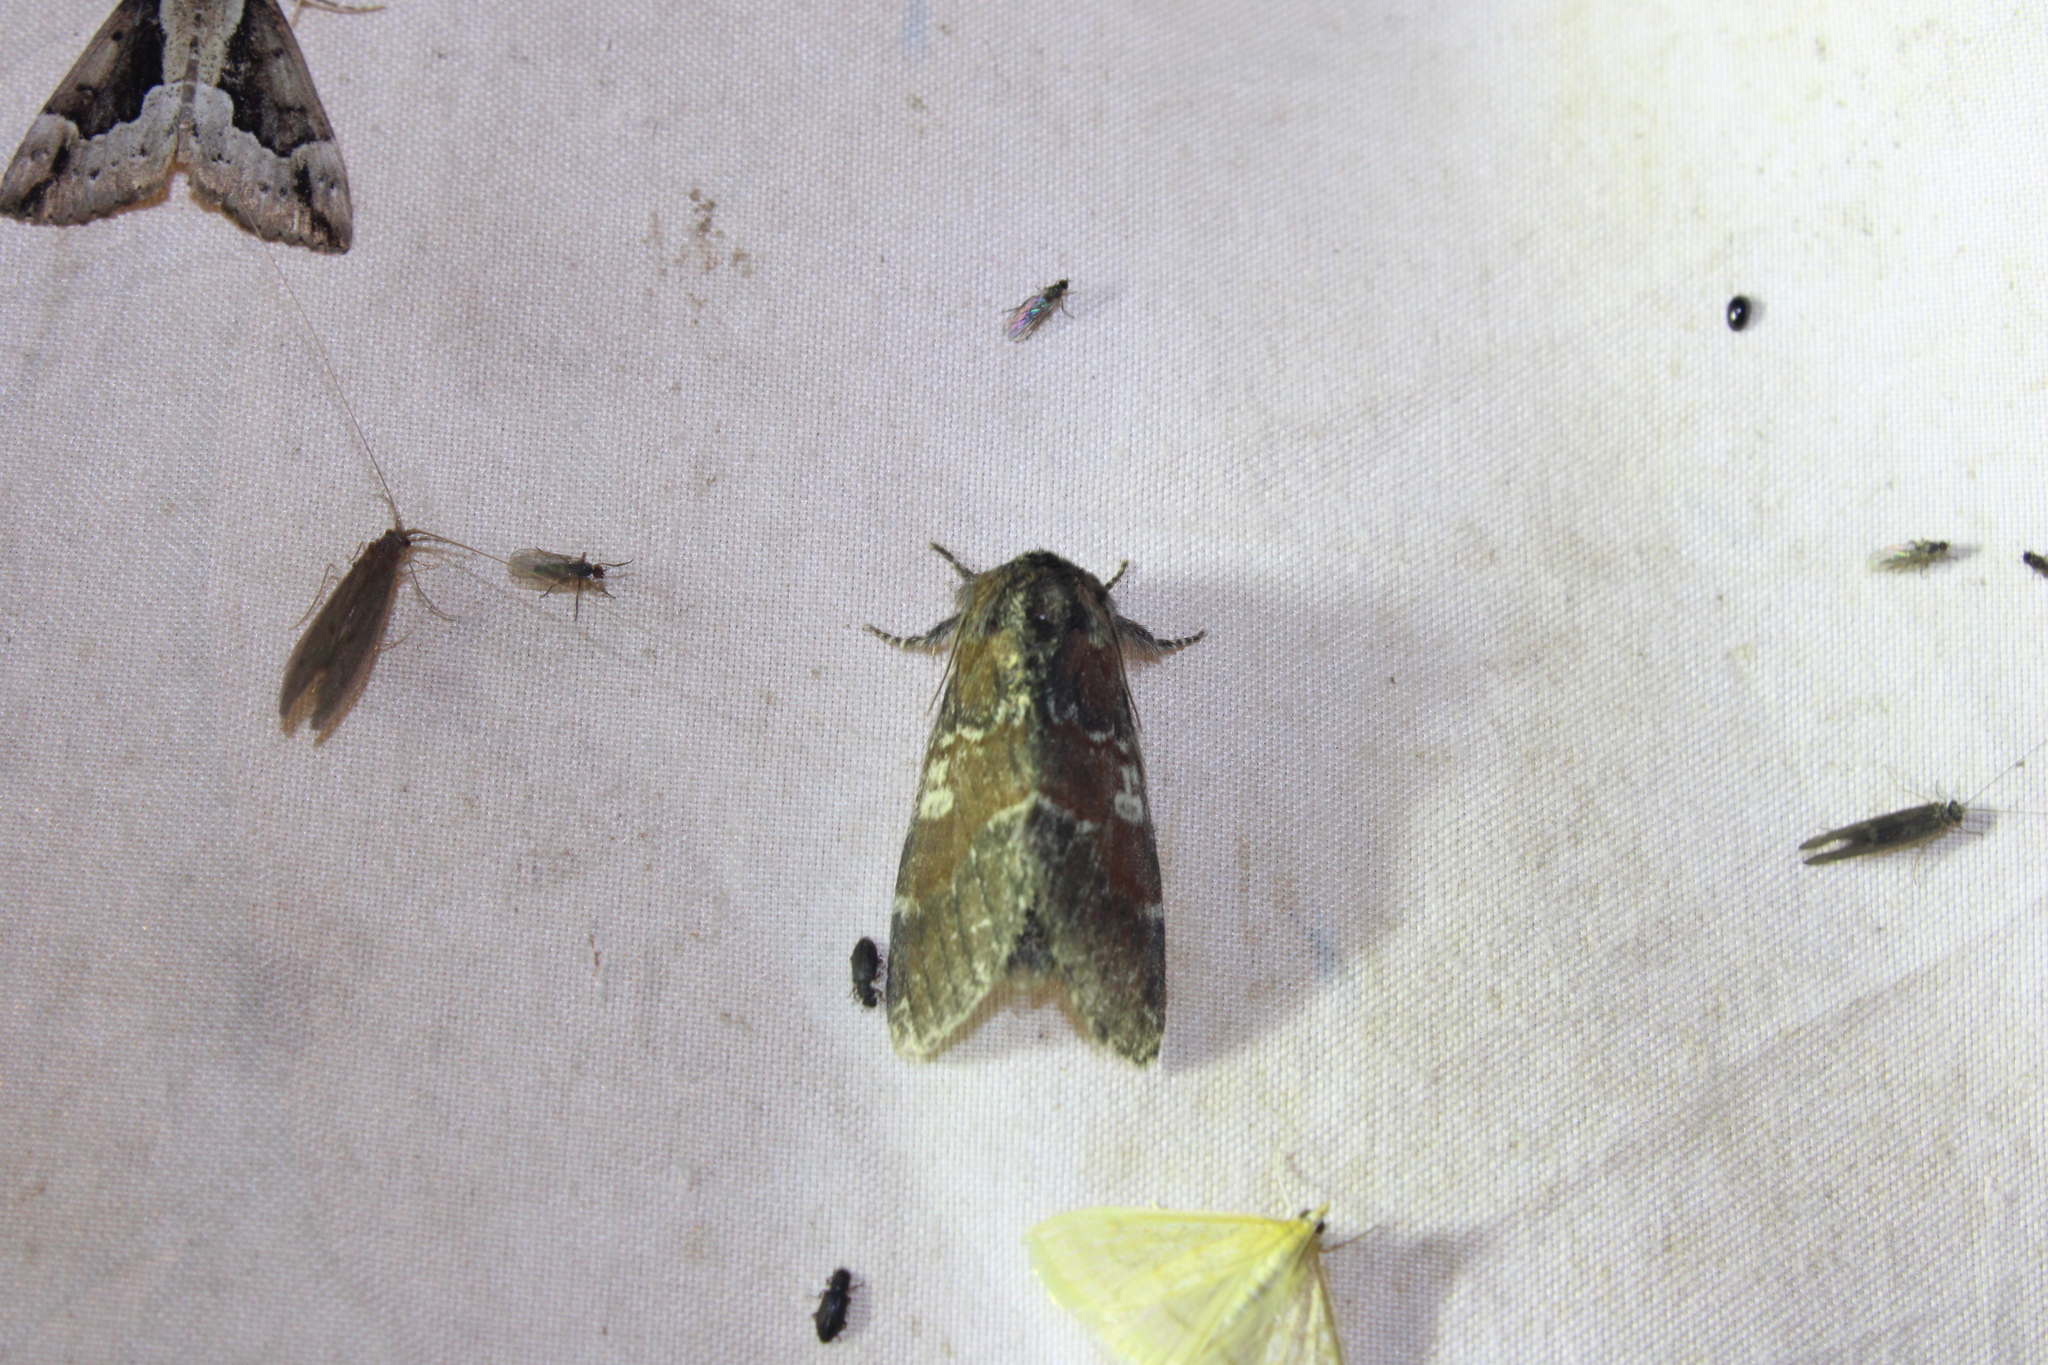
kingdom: Animalia
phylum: Arthropoda
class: Insecta
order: Lepidoptera
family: Notodontidae
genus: Peridea
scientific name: Peridea ferruginea
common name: Chocolate prominent
